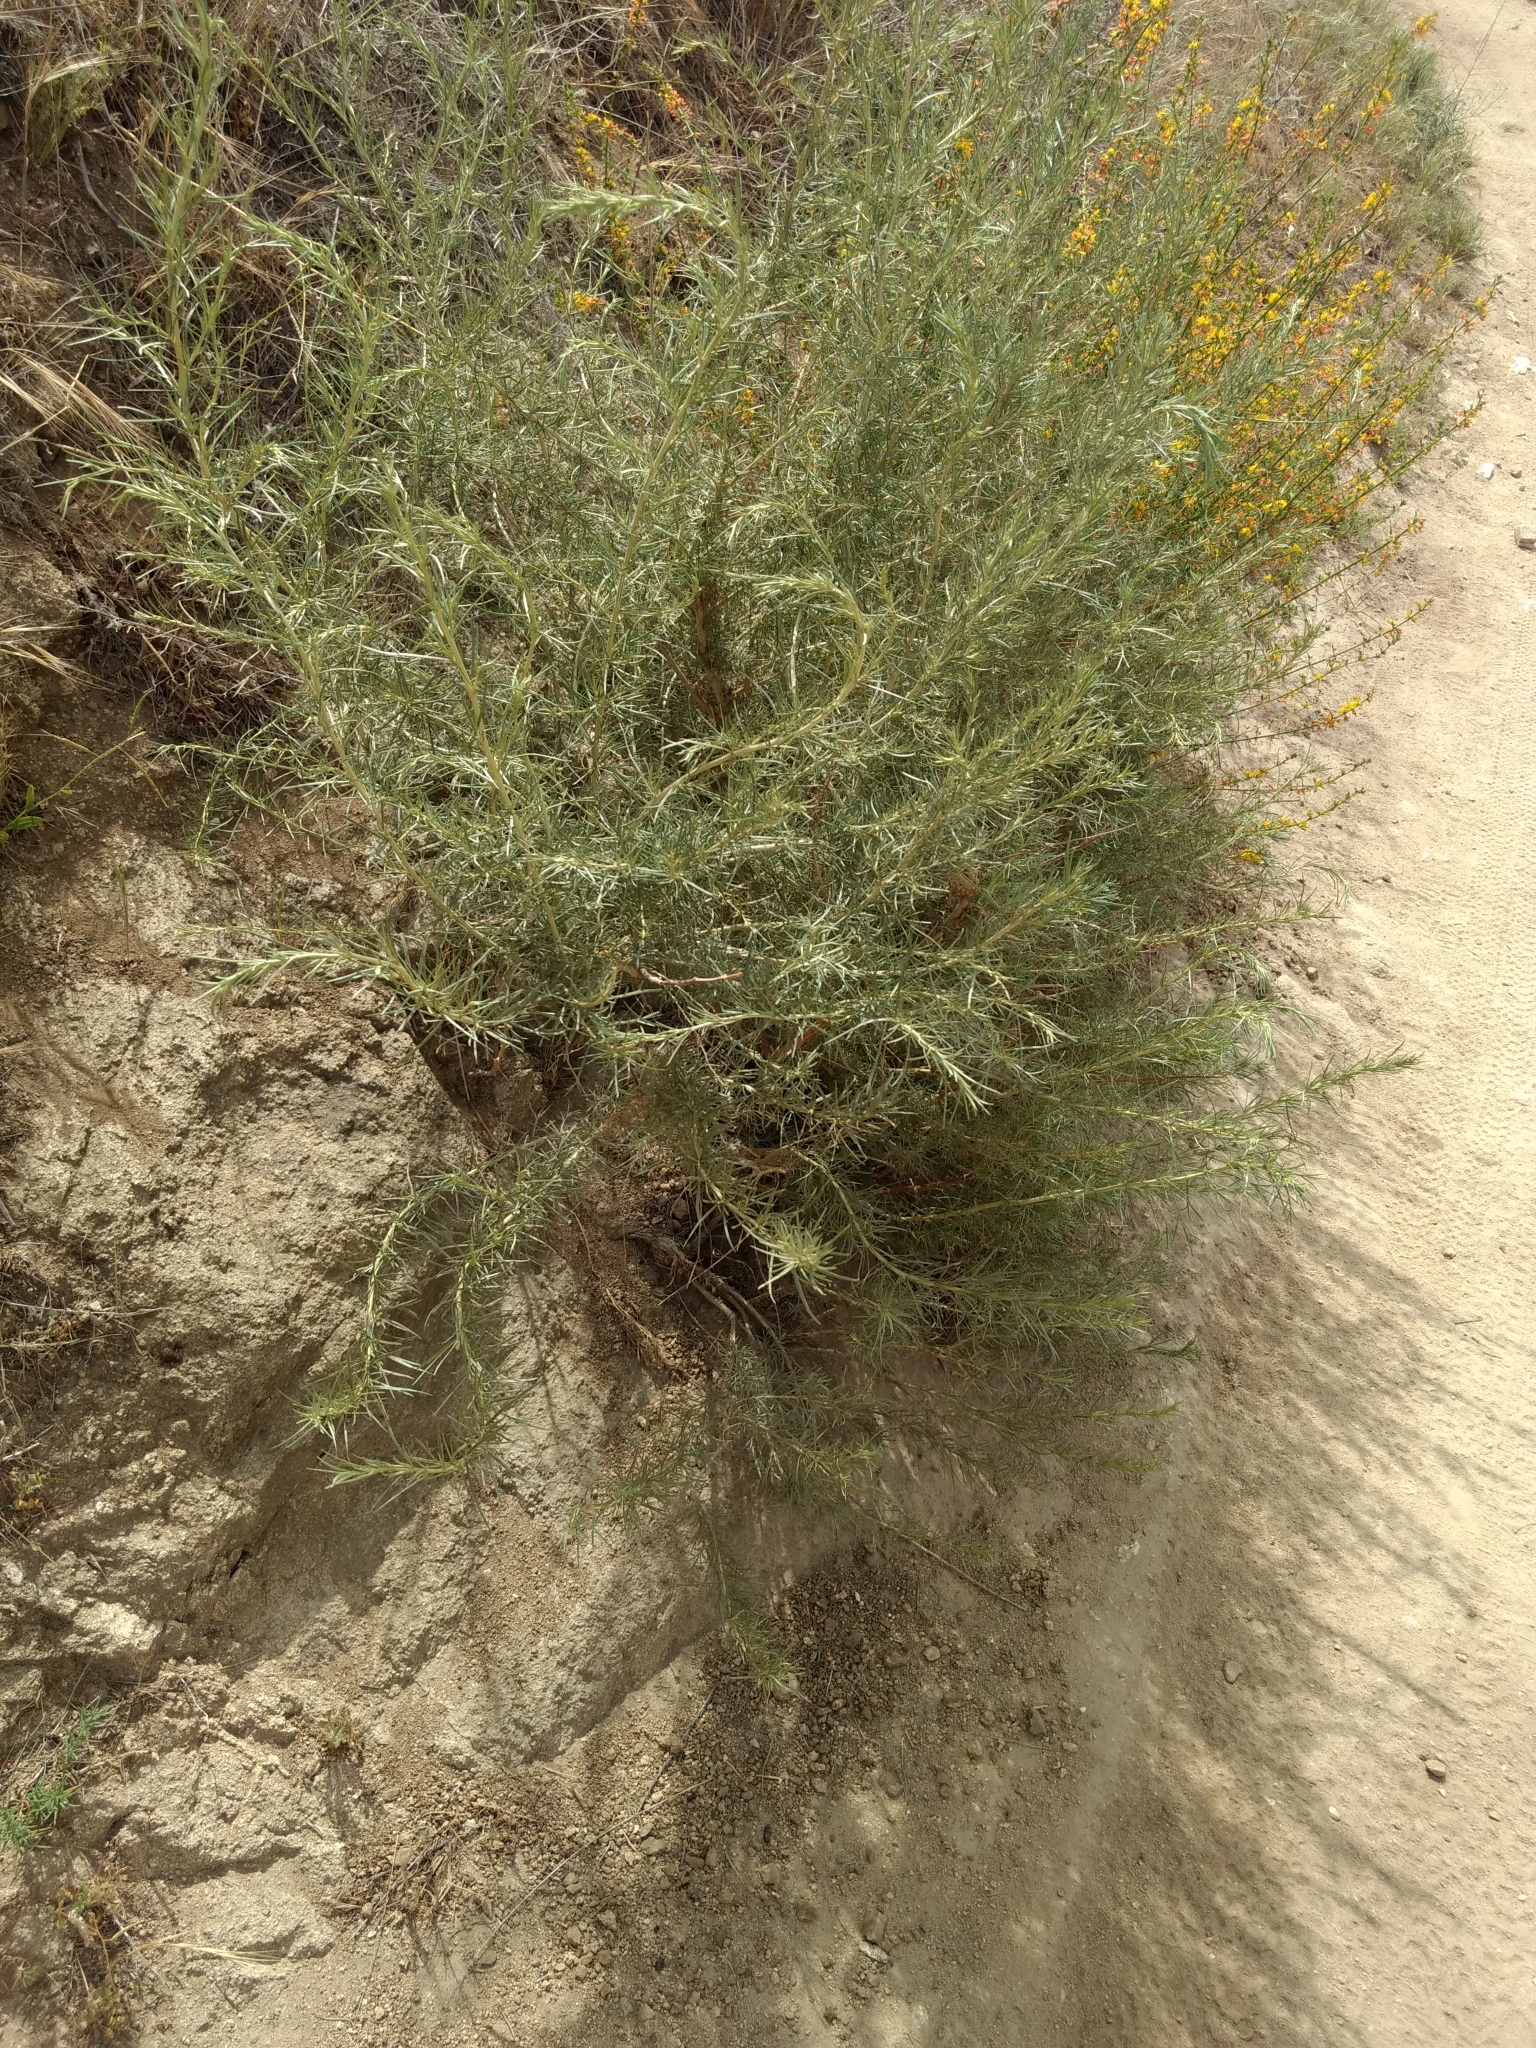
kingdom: Plantae
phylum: Tracheophyta
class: Magnoliopsida
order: Asterales
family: Asteraceae
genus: Artemisia
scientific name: Artemisia californica
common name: California sagebrush
